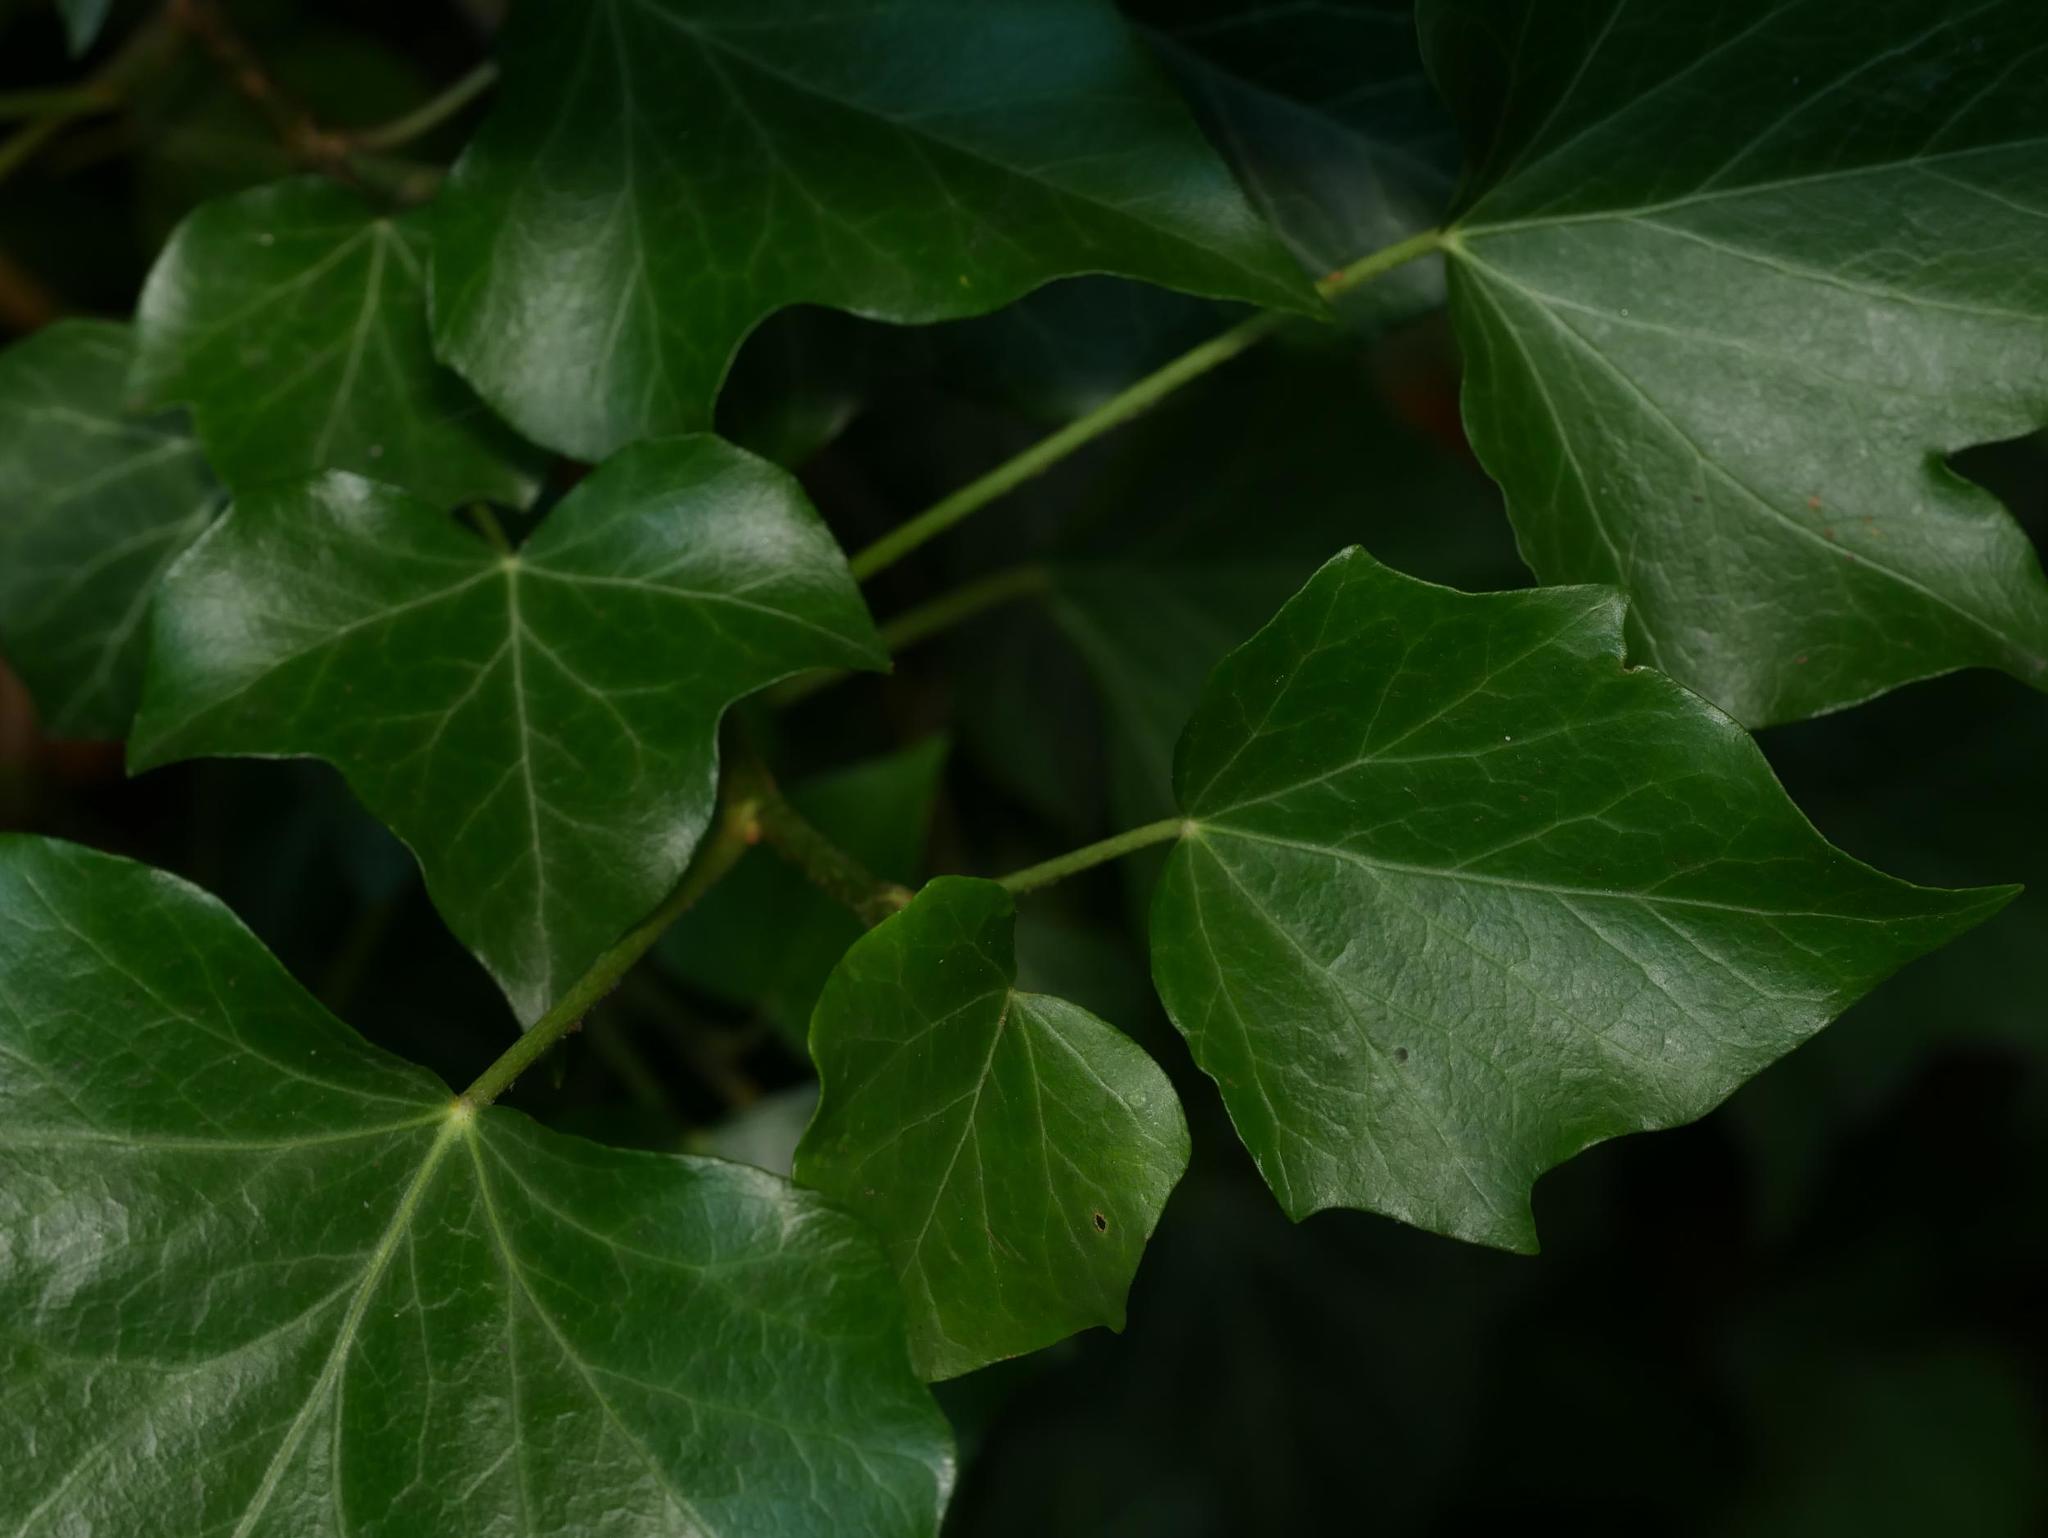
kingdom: Plantae
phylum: Tracheophyta
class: Magnoliopsida
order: Apiales
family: Araliaceae
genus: Hedera
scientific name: Hedera helix
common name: Ivy
